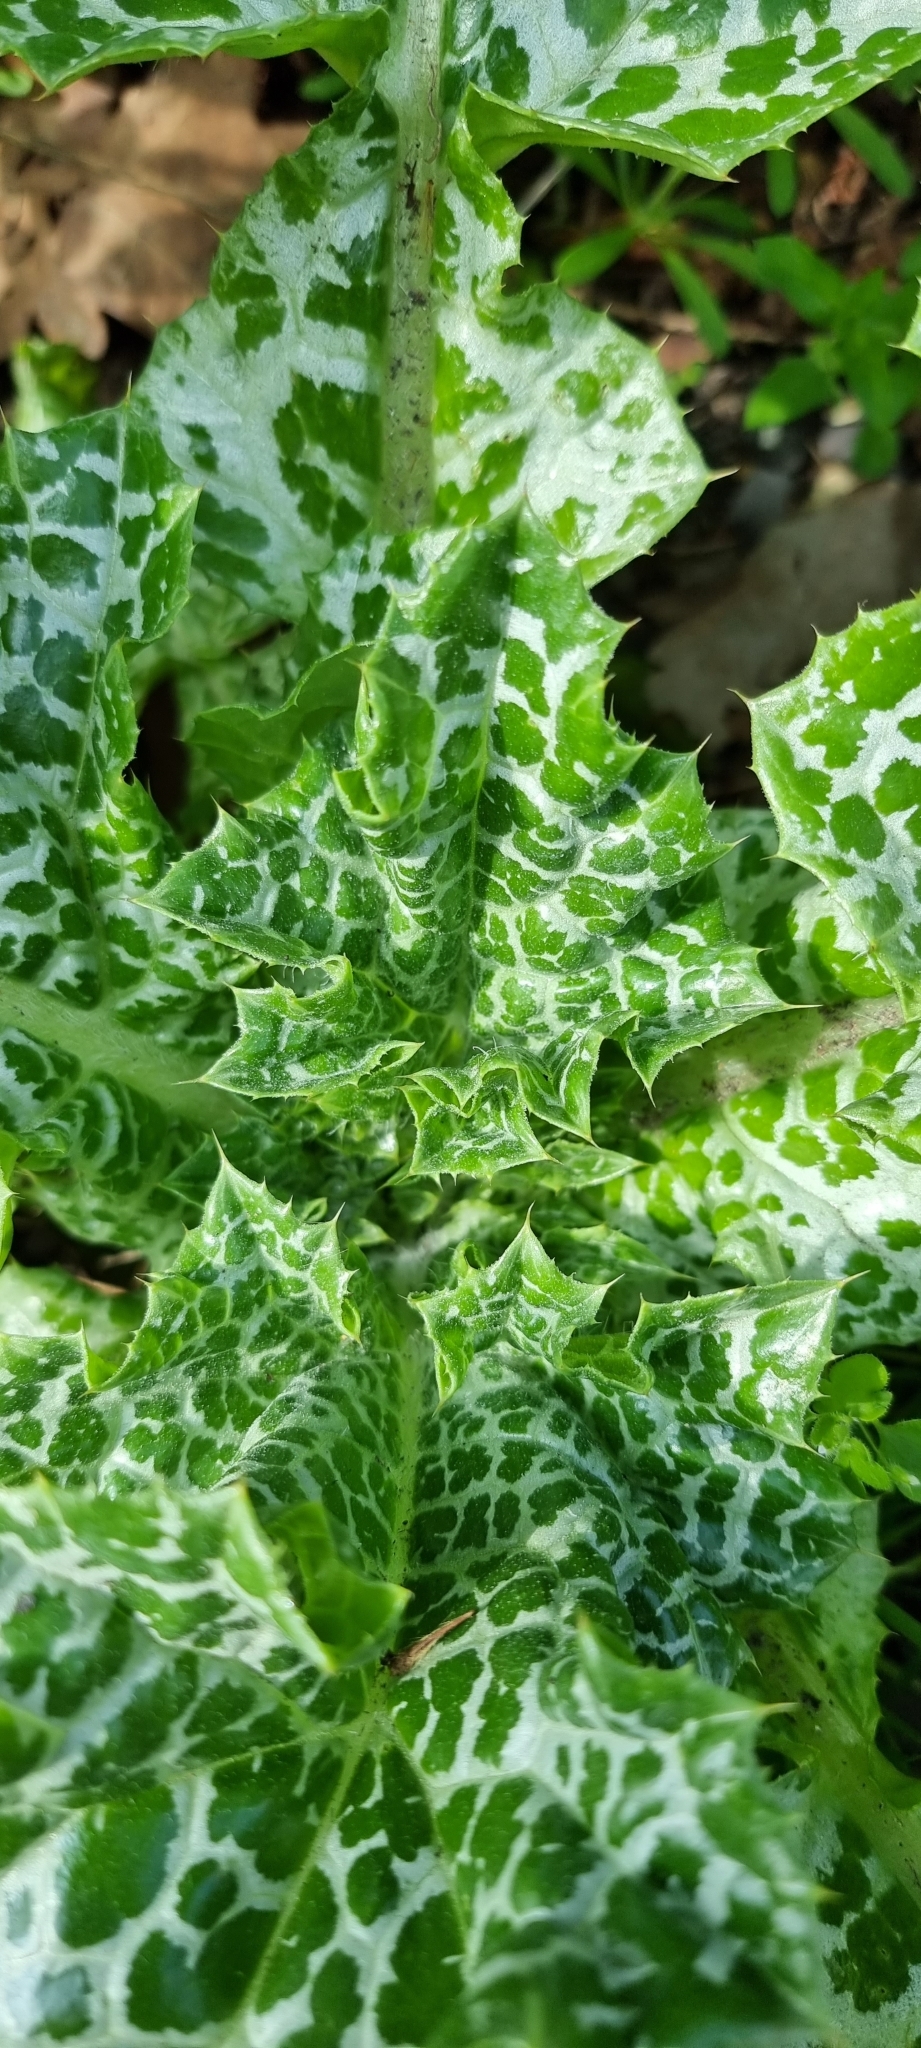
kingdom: Plantae
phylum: Tracheophyta
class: Magnoliopsida
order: Asterales
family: Asteraceae
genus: Silybum
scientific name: Silybum marianum
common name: Milk thistle
